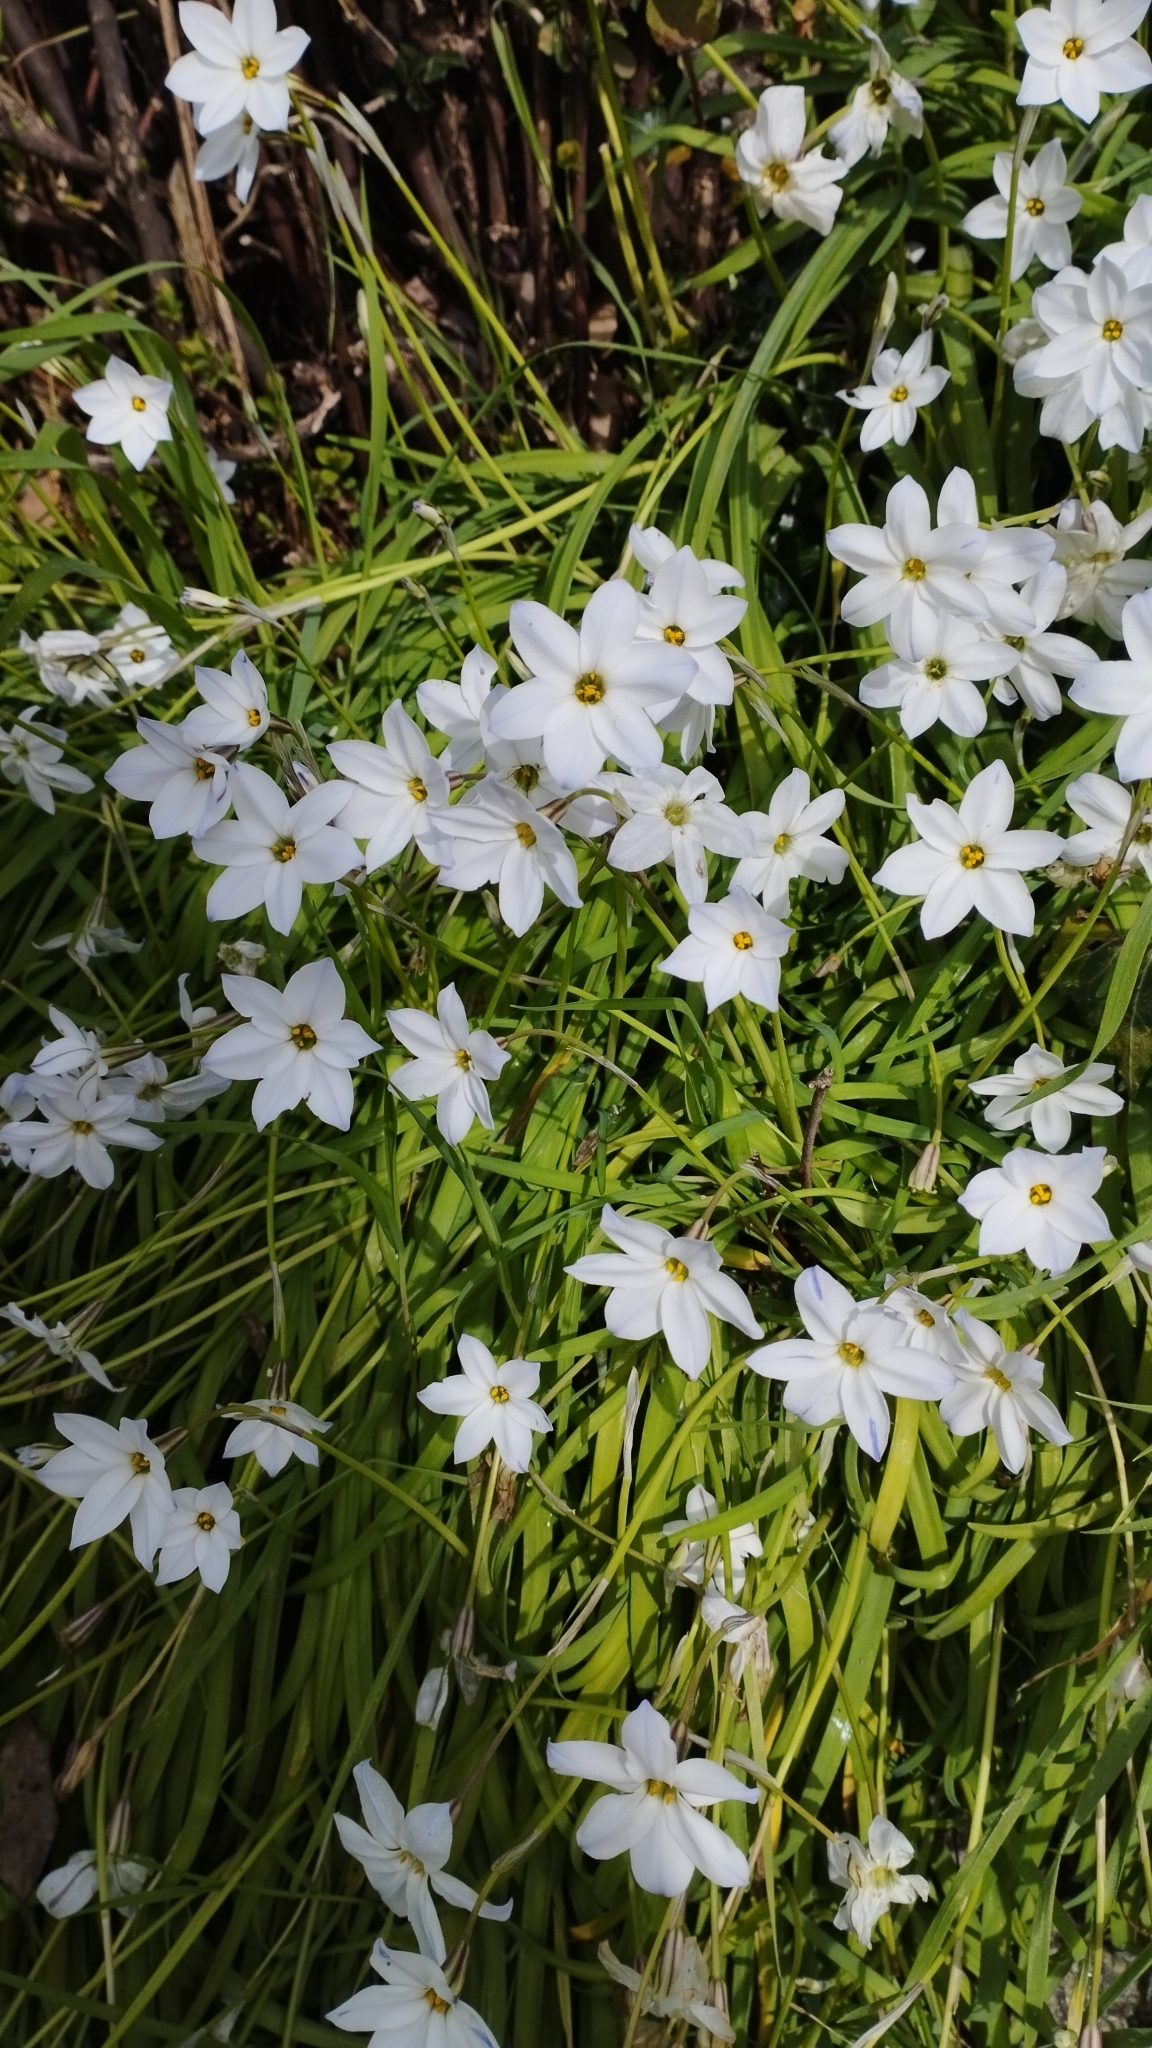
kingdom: Plantae
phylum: Tracheophyta
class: Liliopsida
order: Asparagales
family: Amaryllidaceae
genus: Ipheion
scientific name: Ipheion uniflorum
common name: Spring starflower
